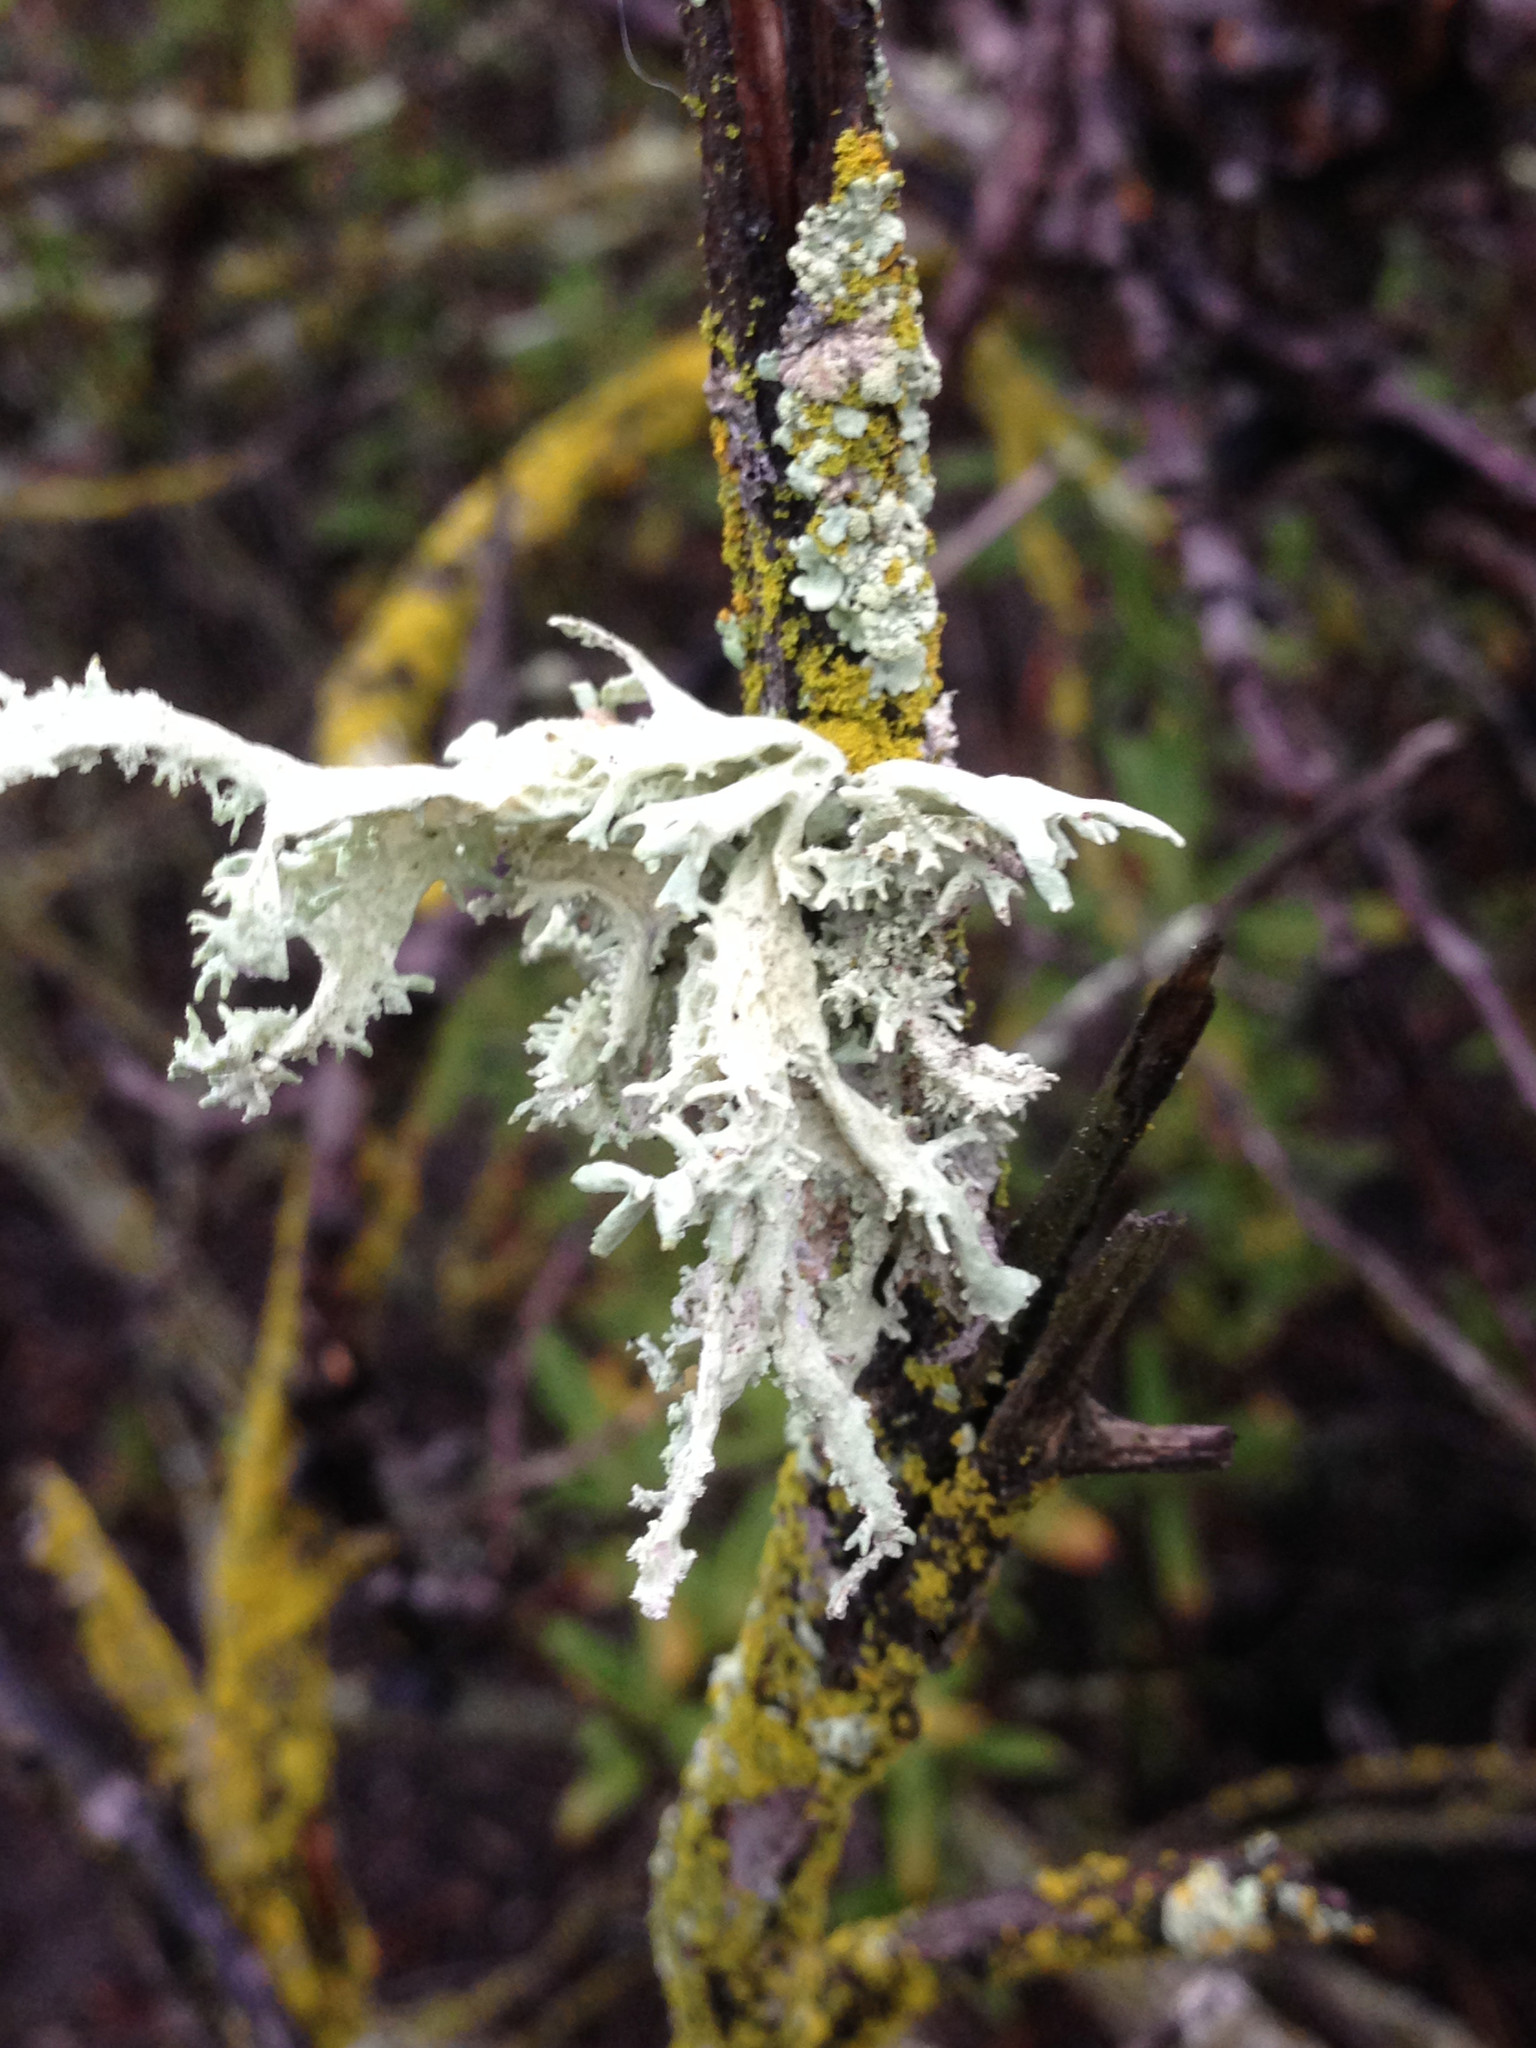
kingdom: Fungi
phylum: Ascomycota
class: Lecanoromycetes
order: Lecanorales
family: Parmeliaceae
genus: Evernia
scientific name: Evernia prunastri
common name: Oak moss
